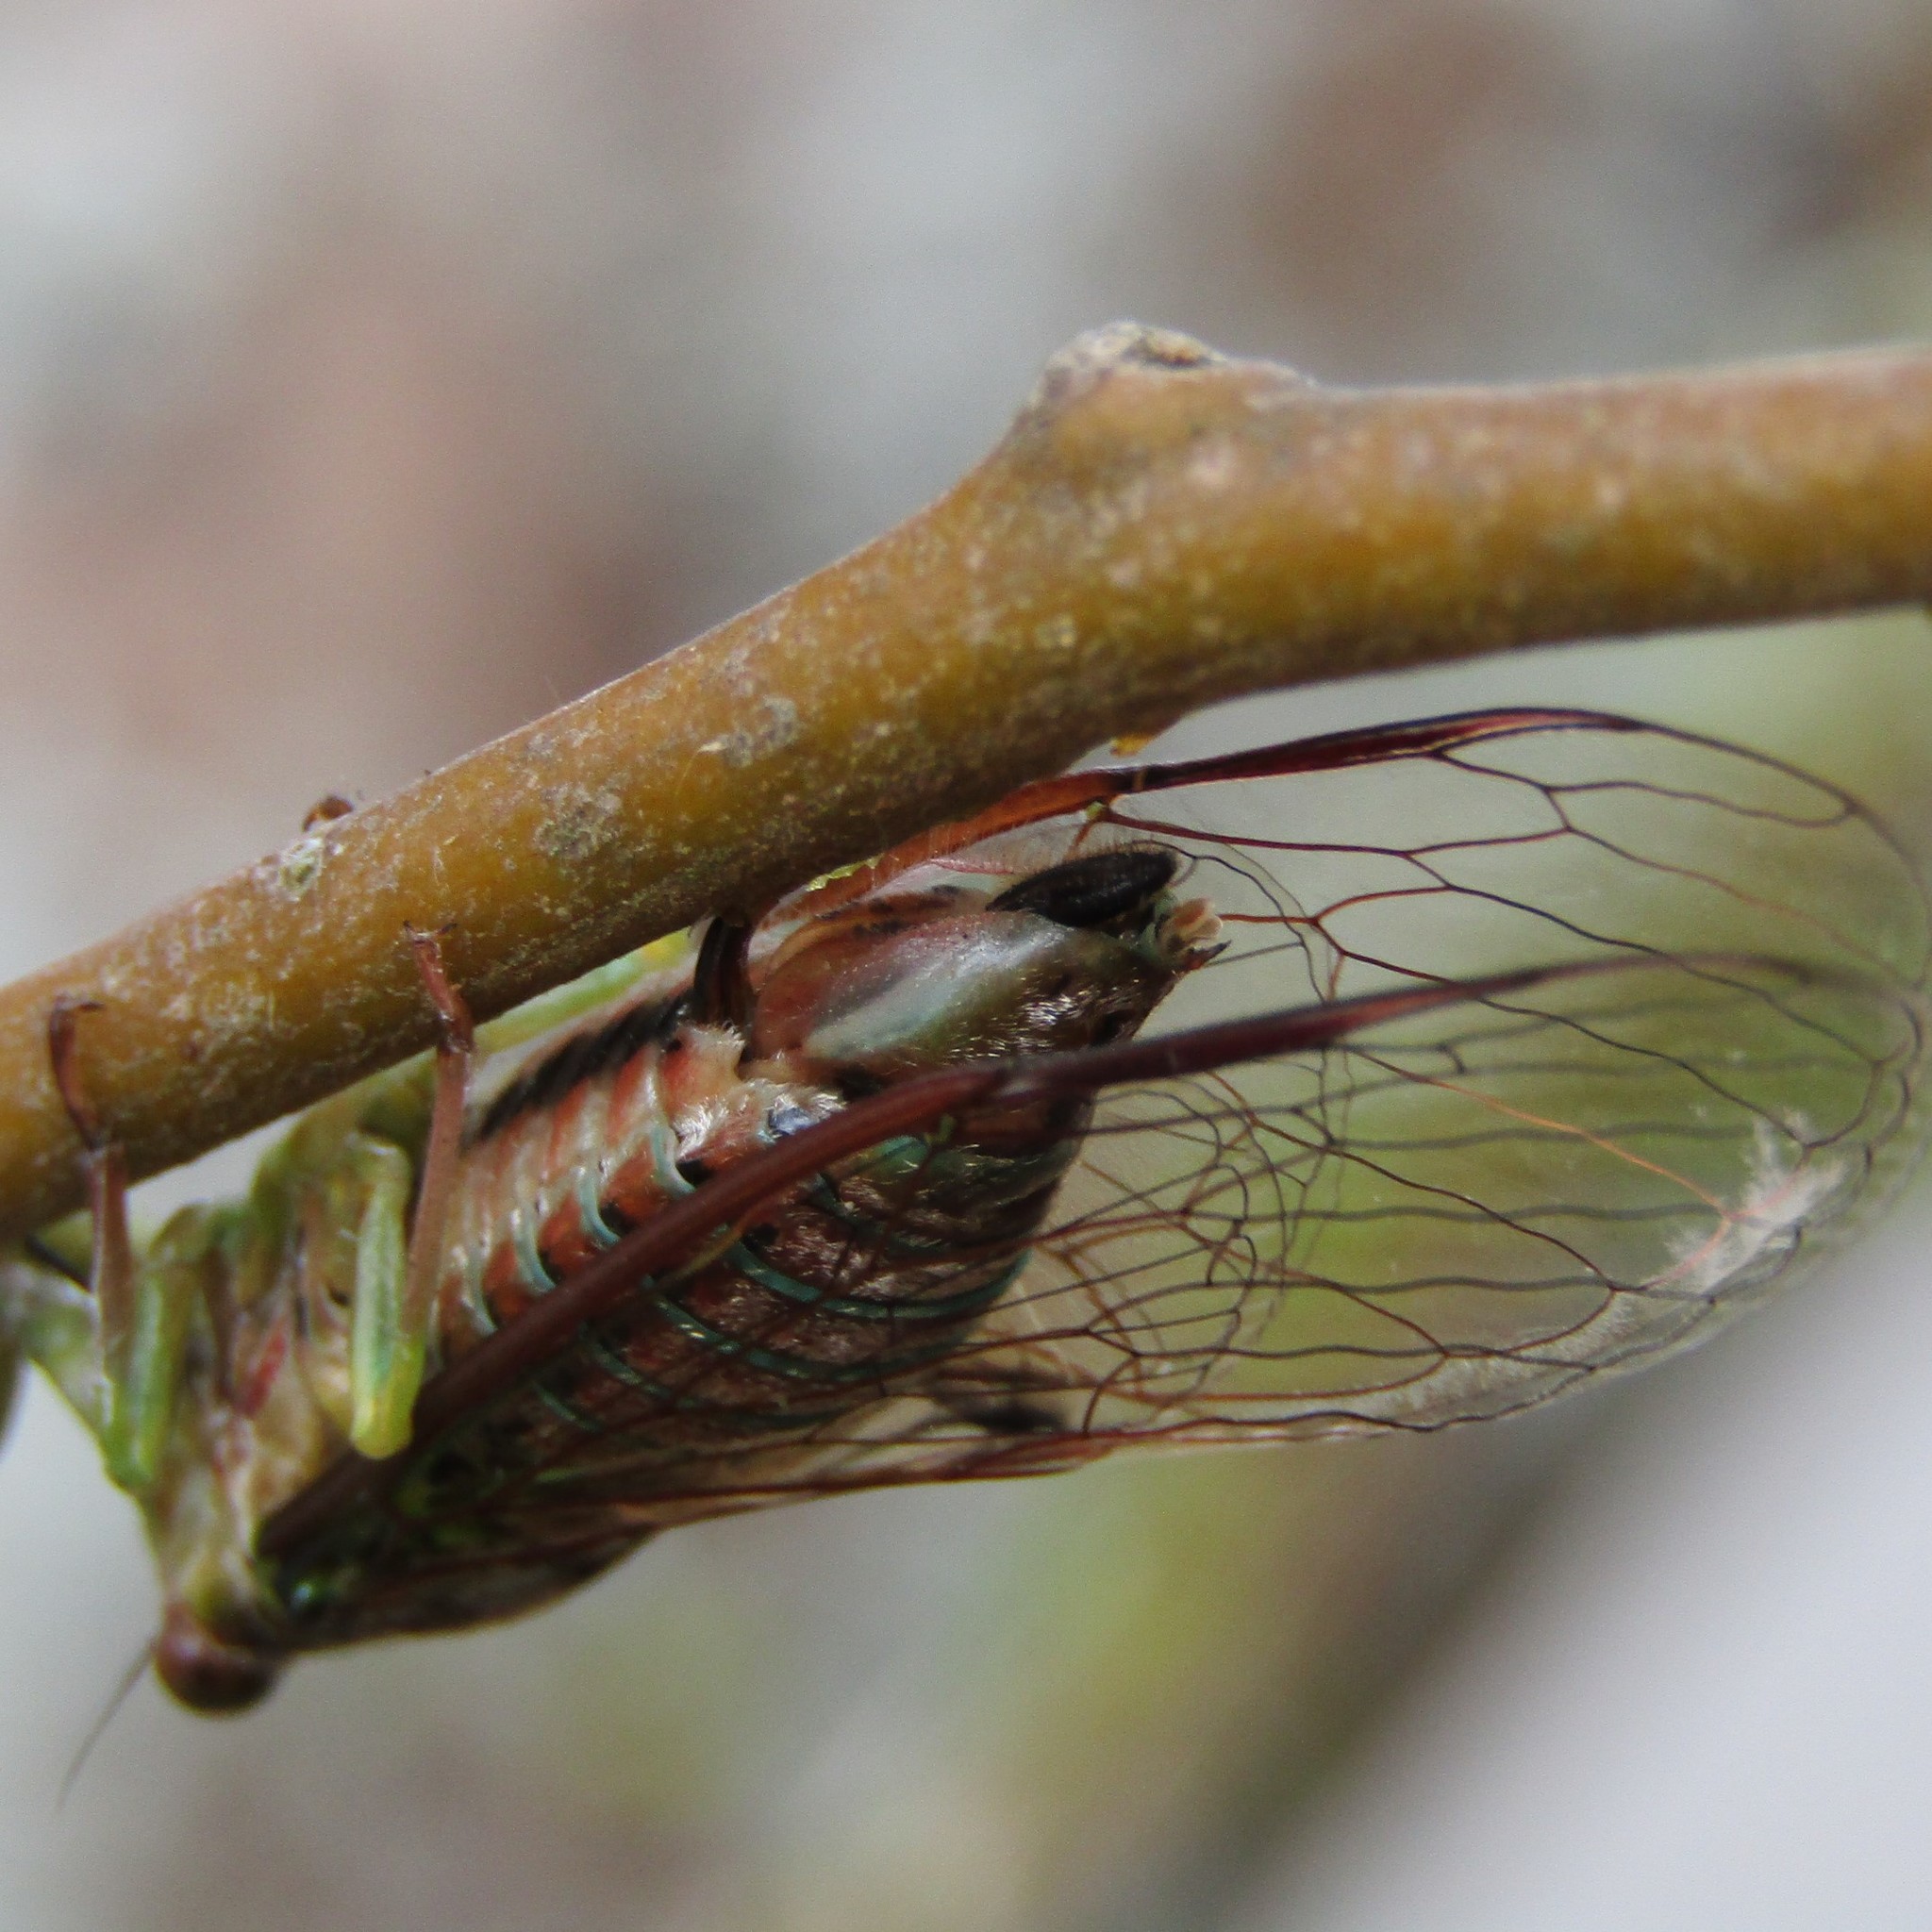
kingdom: Animalia
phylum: Arthropoda
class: Insecta
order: Hemiptera
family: Cicadidae
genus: Kikihia
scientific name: Kikihia scutellaris
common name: Lesser bronze cicada
